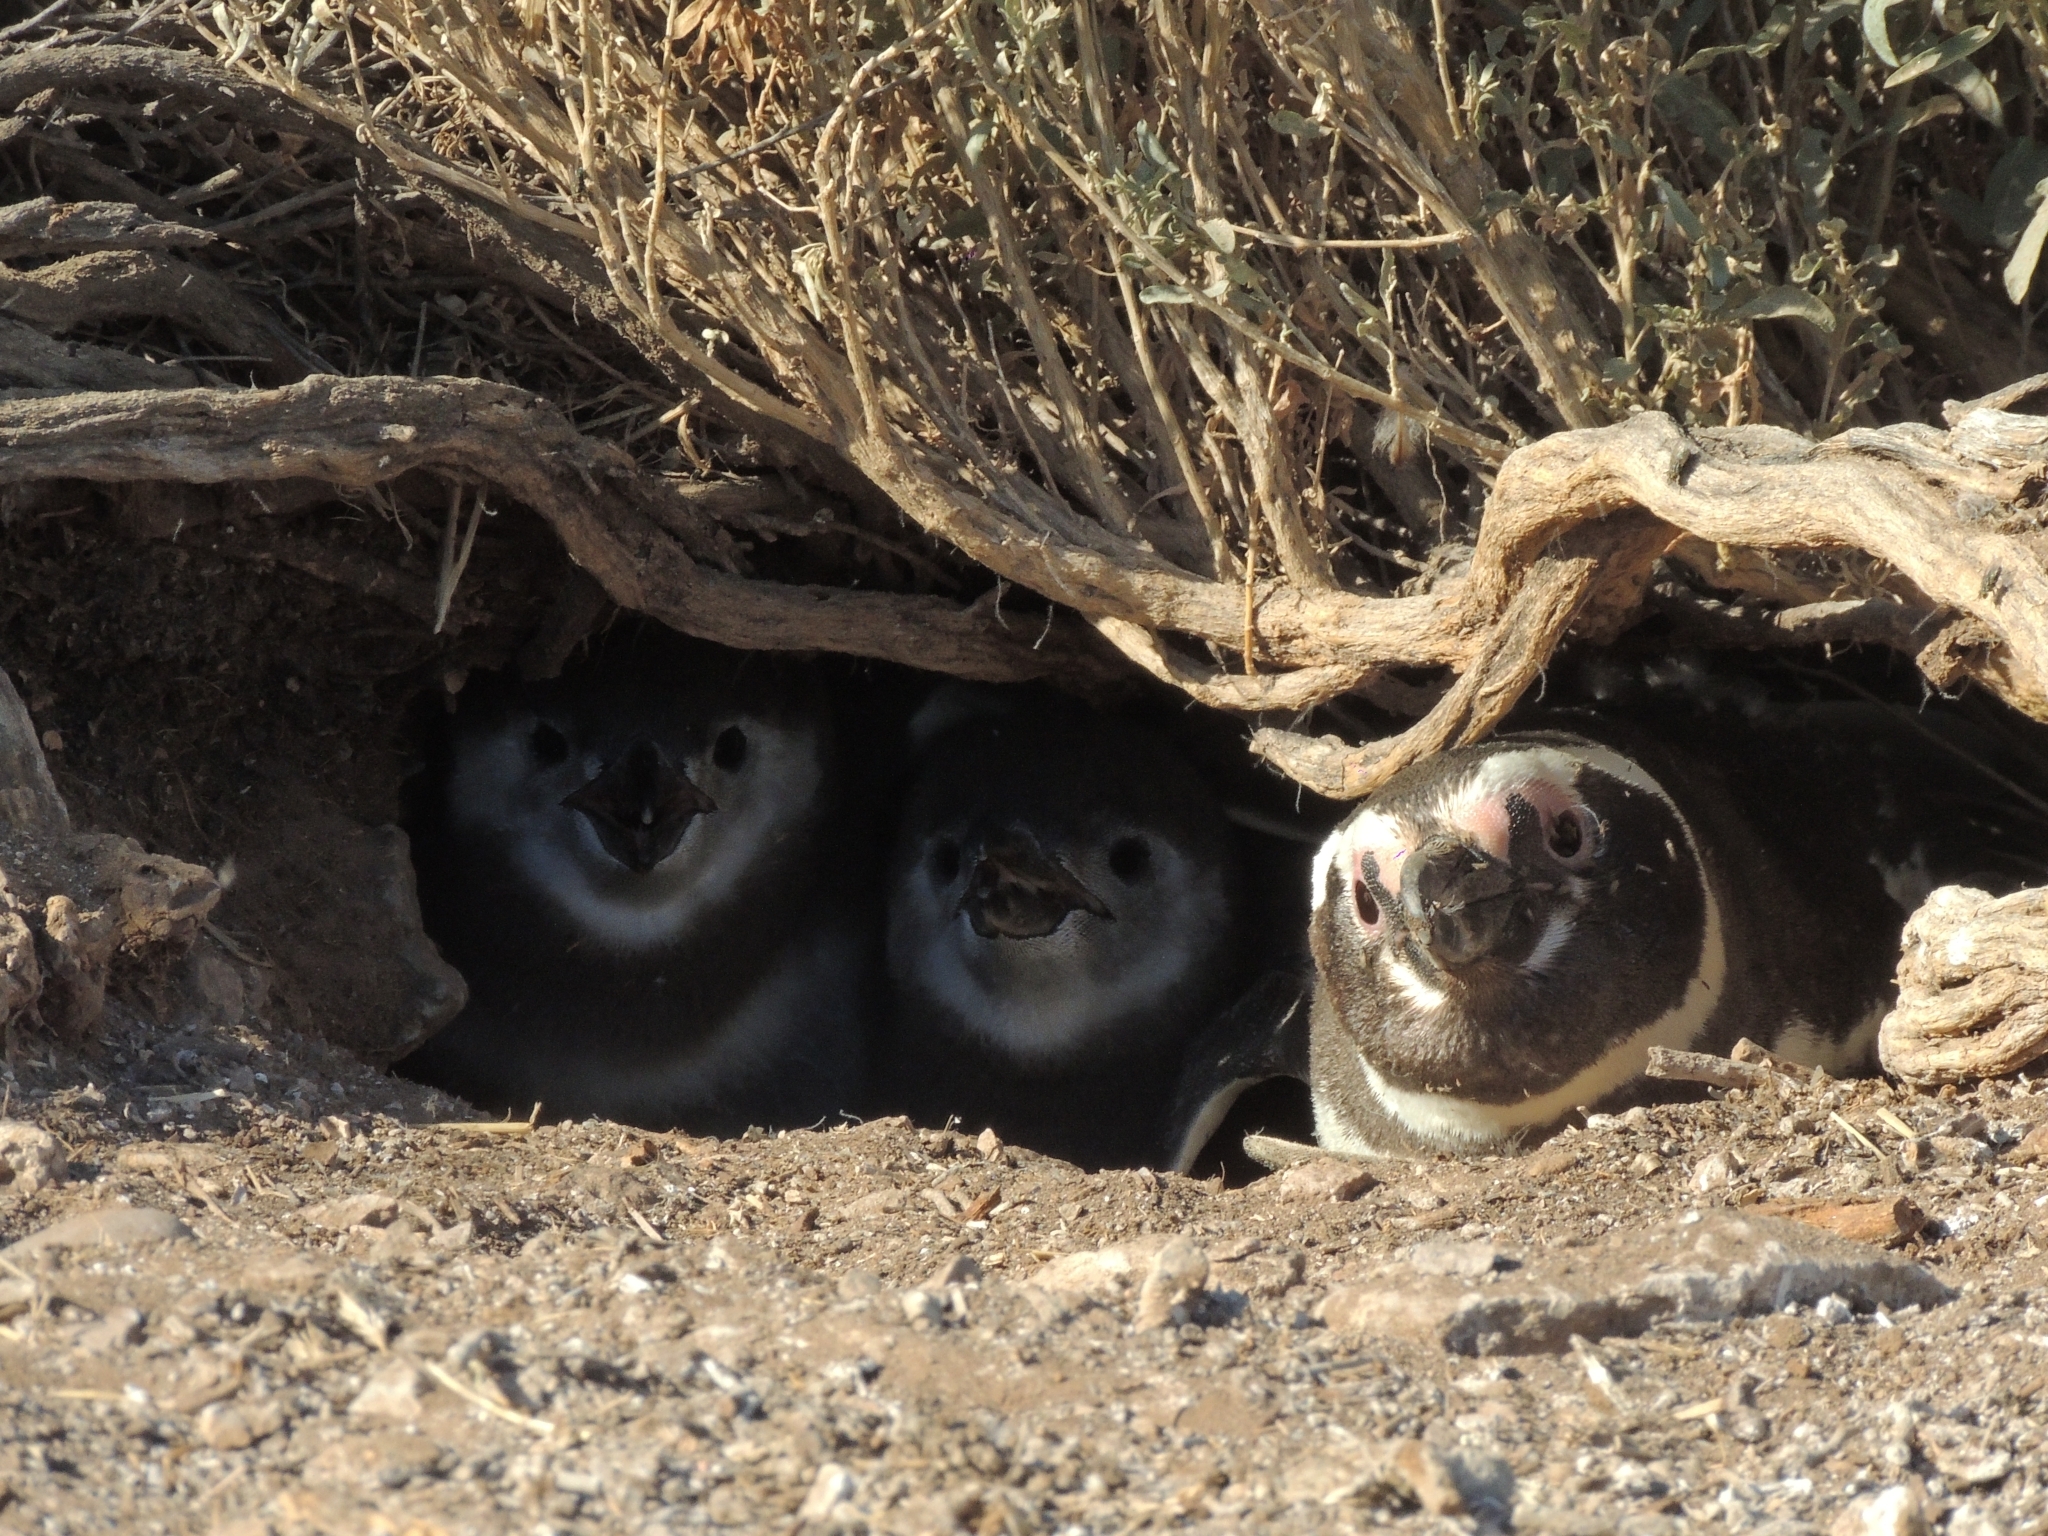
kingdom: Animalia
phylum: Chordata
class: Aves
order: Sphenisciformes
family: Spheniscidae
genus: Spheniscus
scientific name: Spheniscus magellanicus
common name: Magellanic penguin
